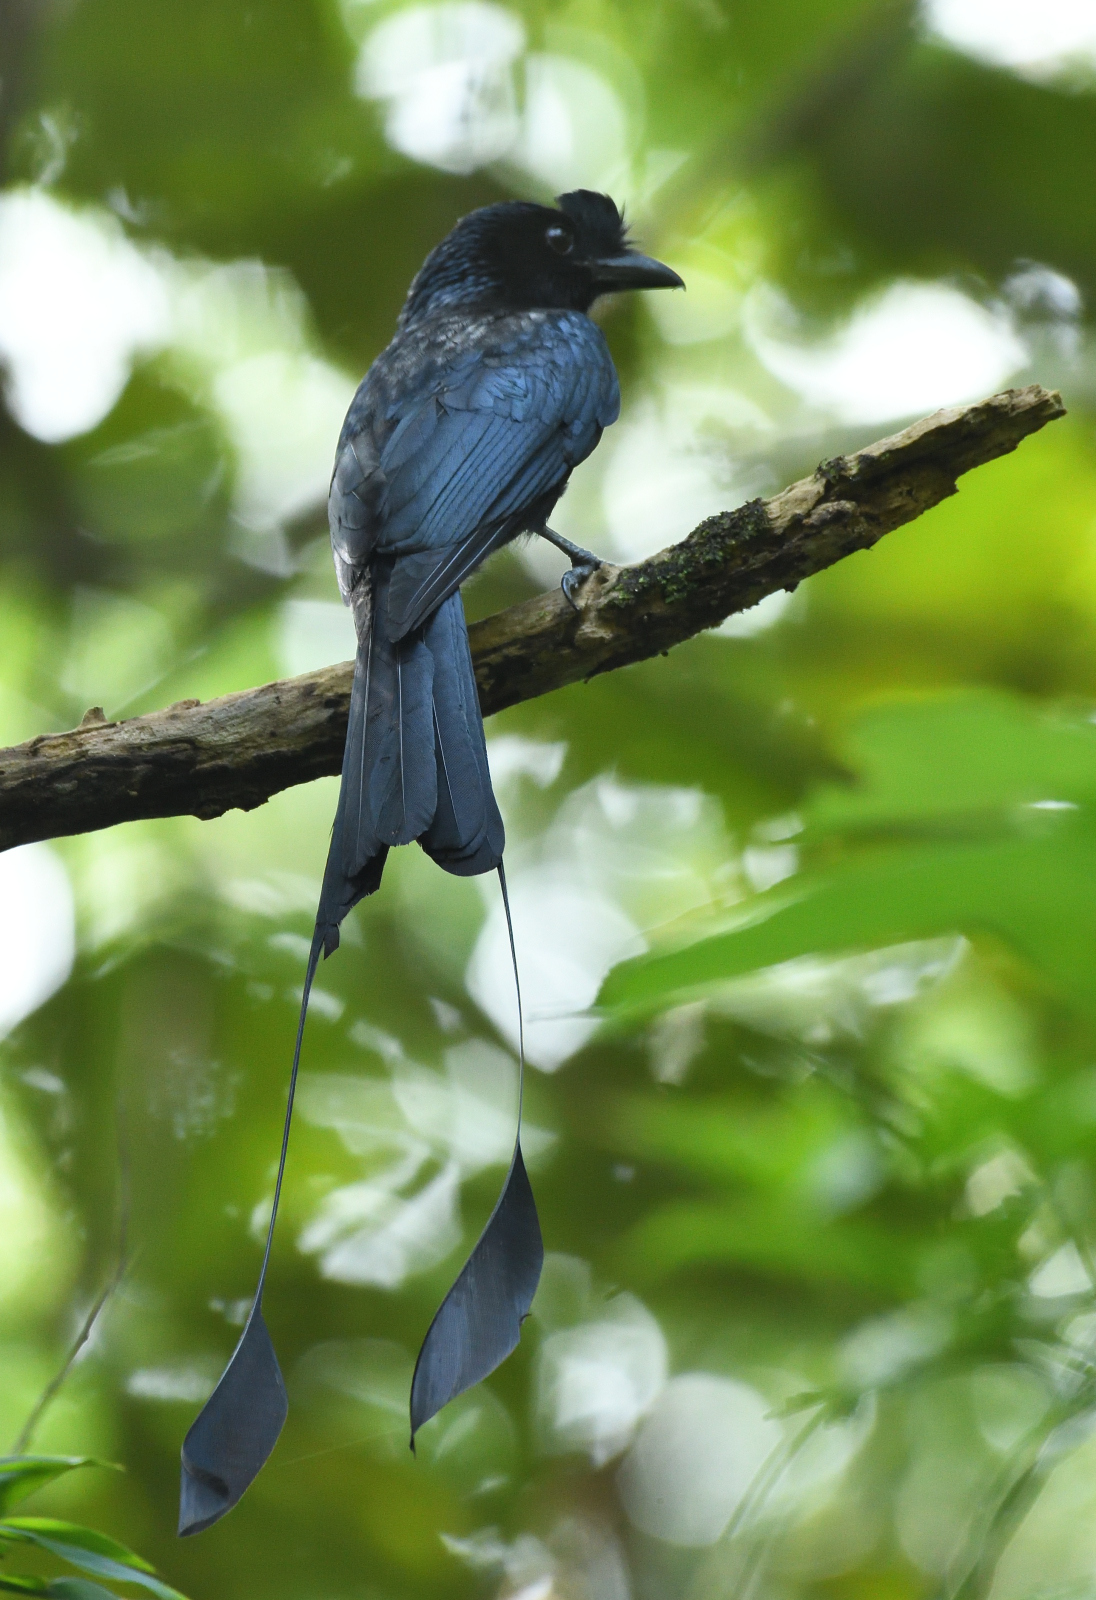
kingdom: Animalia
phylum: Chordata
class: Aves
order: Passeriformes
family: Dicruridae
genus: Dicrurus
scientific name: Dicrurus paradiseus
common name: Greater racket-tailed drongo
